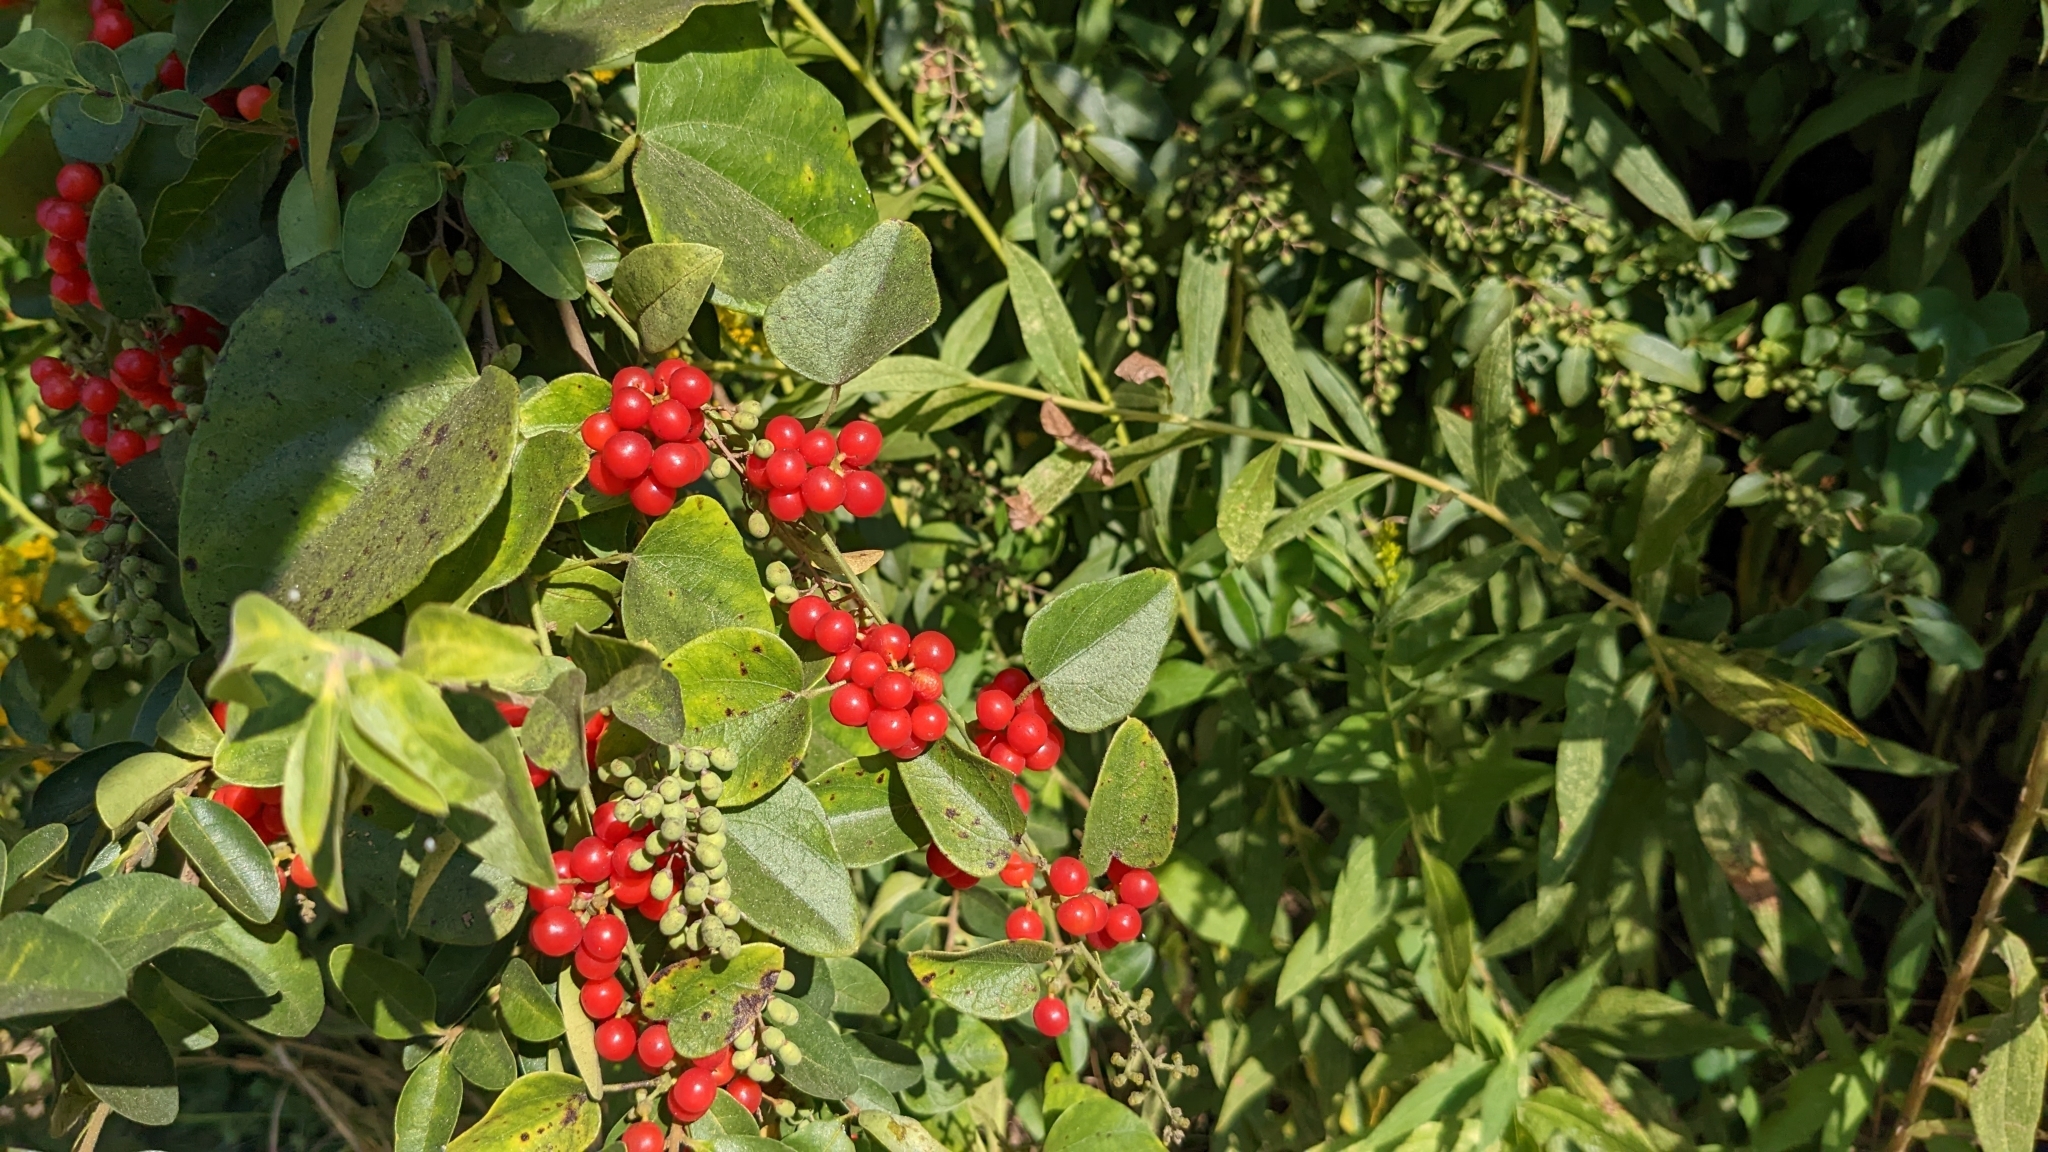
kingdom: Plantae
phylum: Tracheophyta
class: Magnoliopsida
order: Ranunculales
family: Menispermaceae
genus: Cocculus
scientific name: Cocculus carolinus
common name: Carolina moonseed
